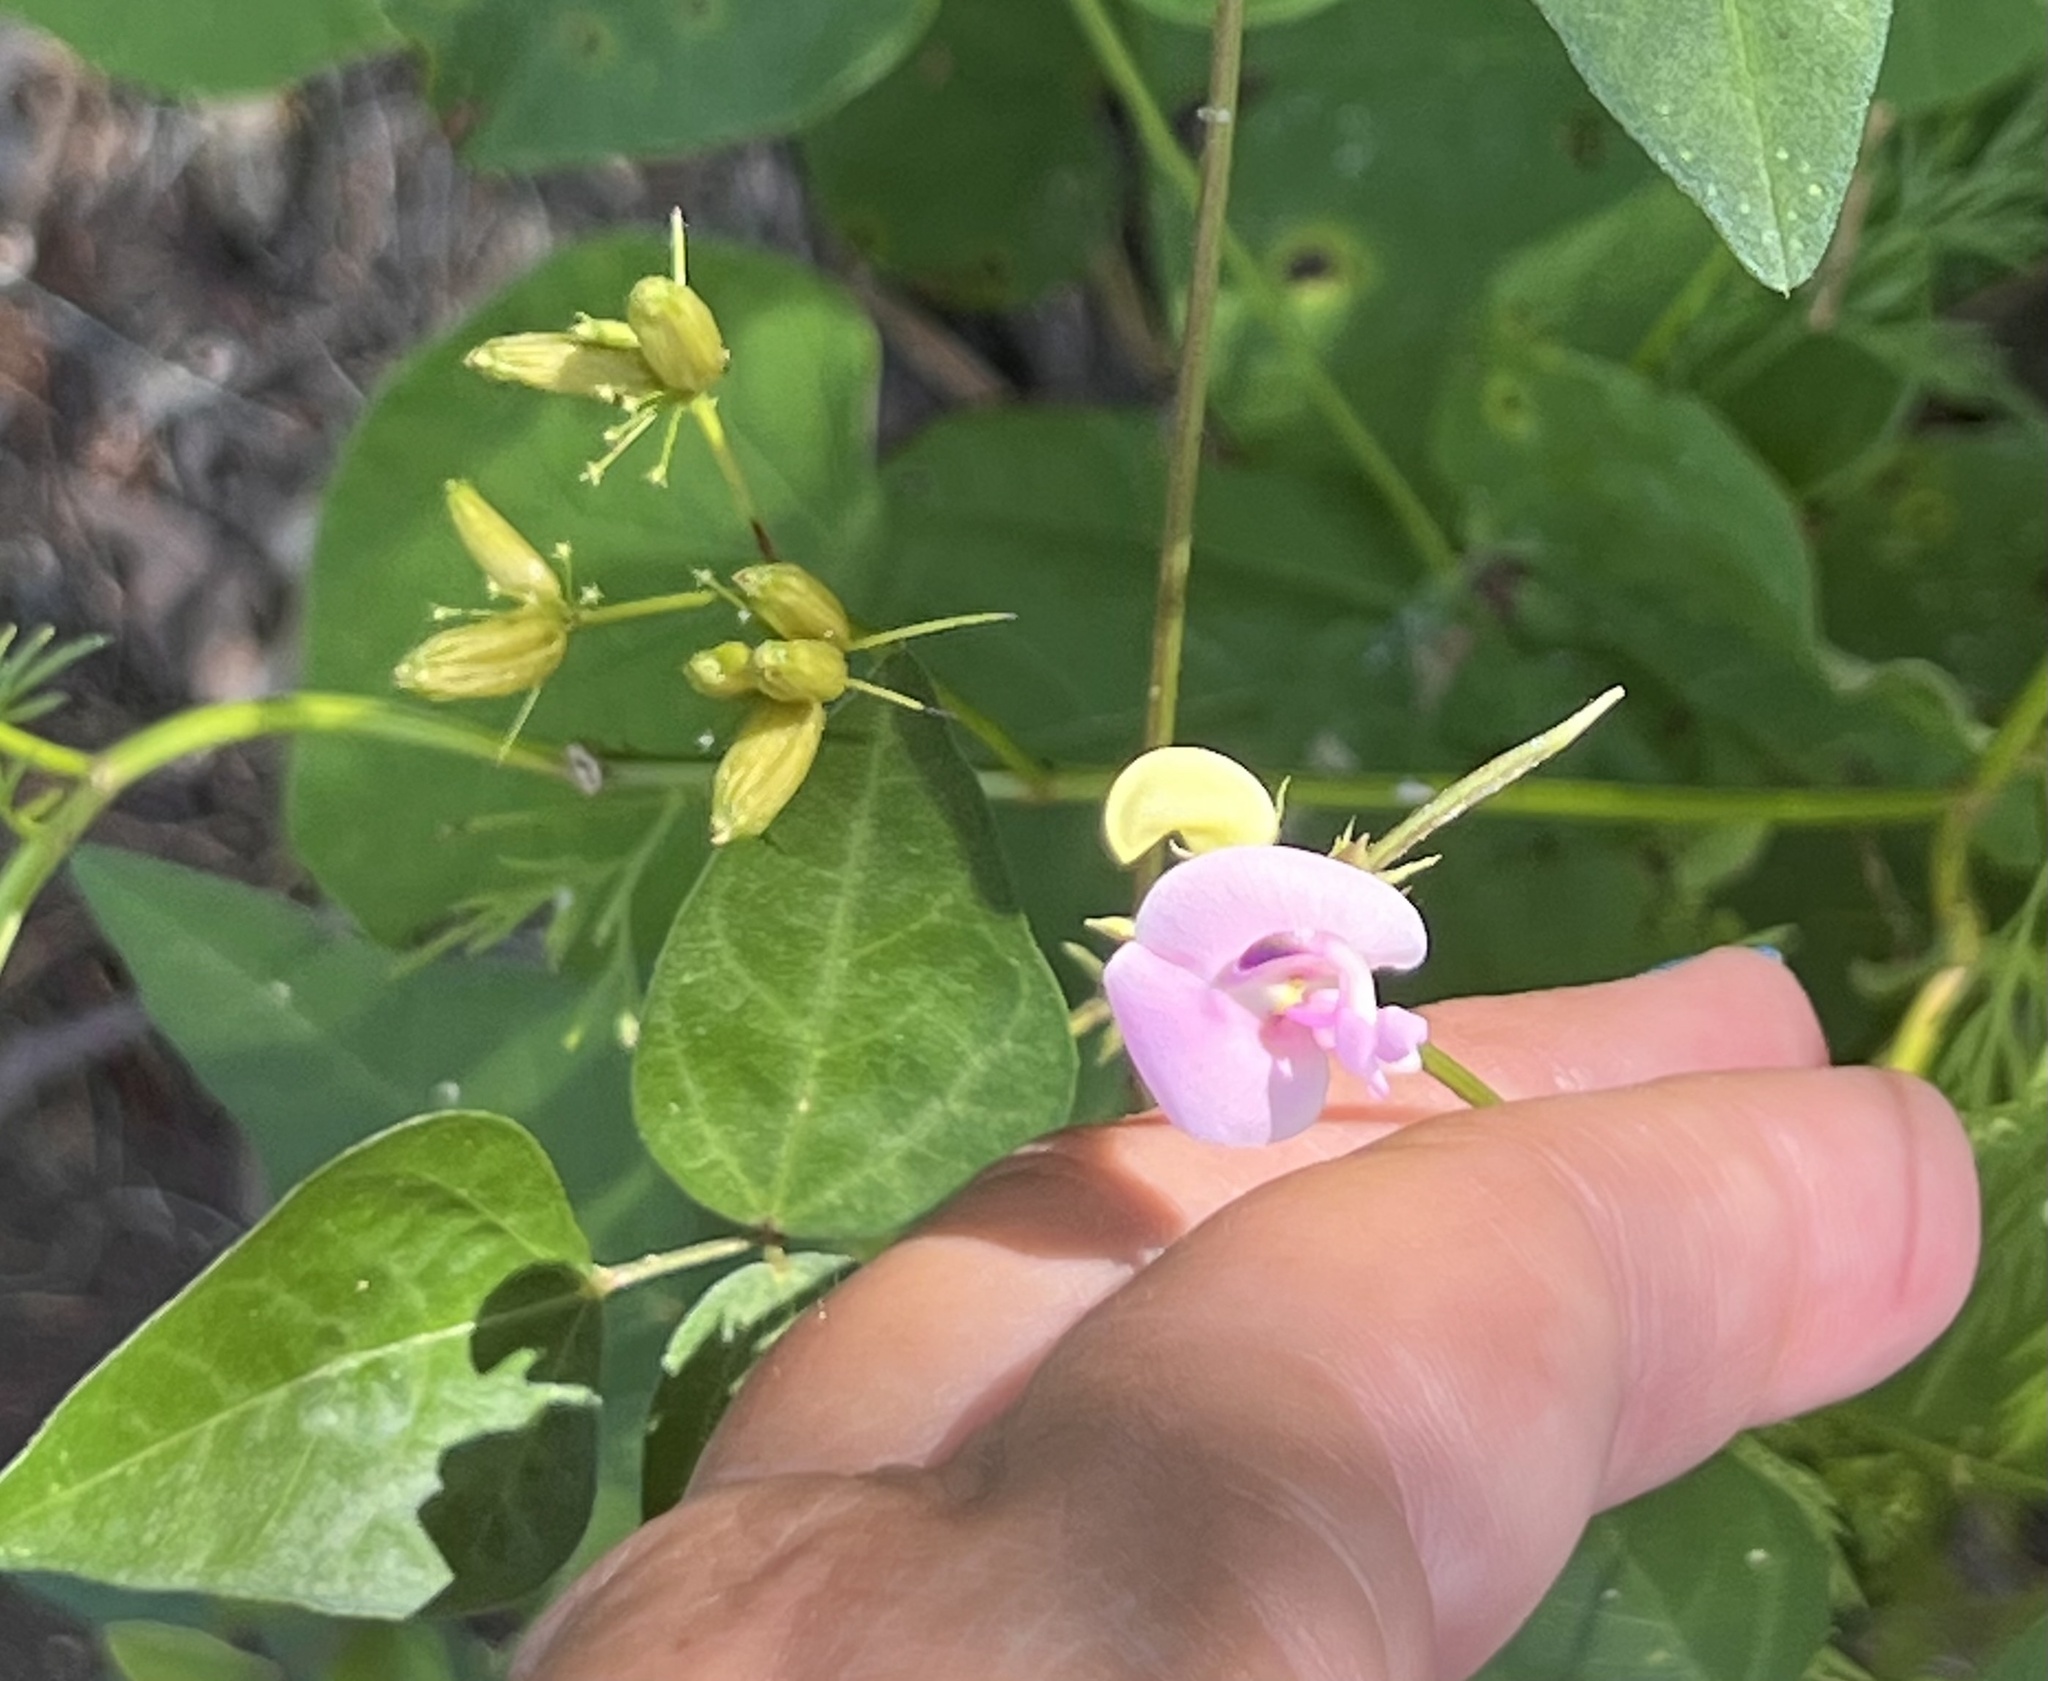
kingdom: Plantae
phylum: Tracheophyta
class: Magnoliopsida
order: Fabales
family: Fabaceae
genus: Strophostyles
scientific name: Strophostyles helvola
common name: Trailing wild bean
